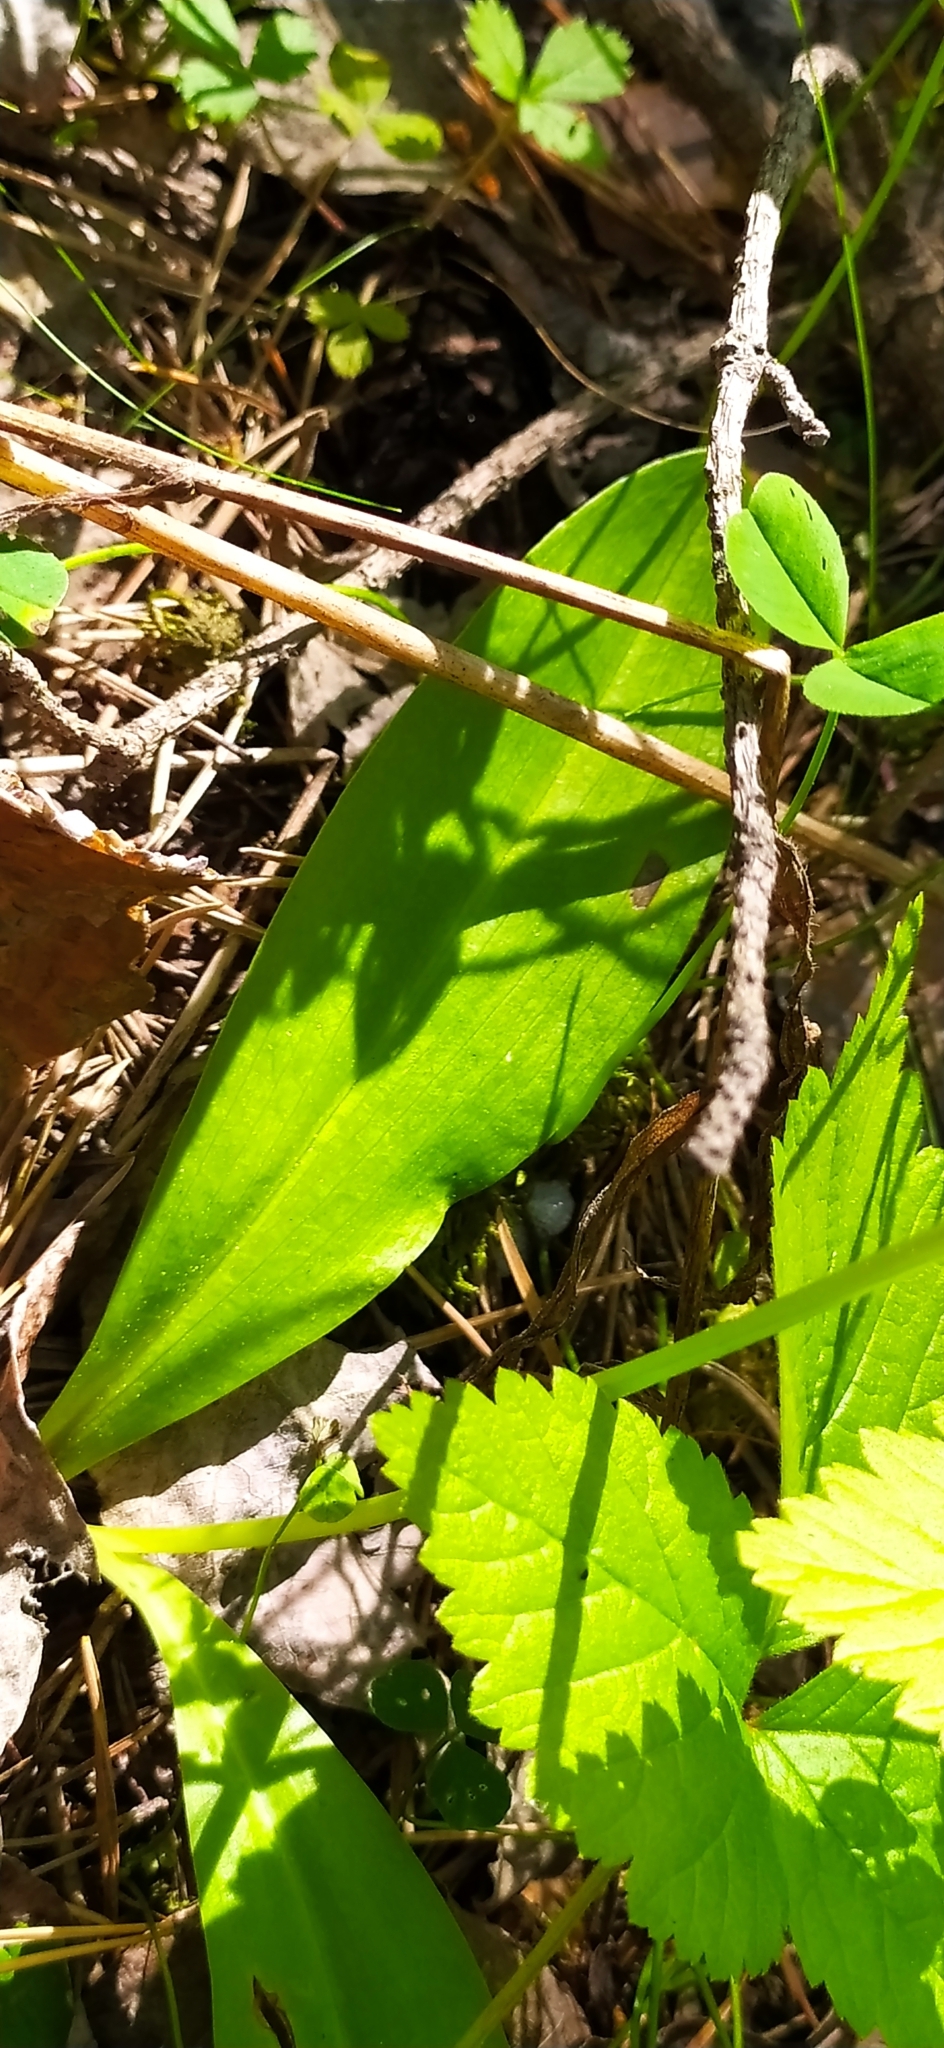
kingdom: Plantae
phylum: Tracheophyta
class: Liliopsida
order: Asparagales
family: Orchidaceae
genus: Platanthera
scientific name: Platanthera bifolia
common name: Lesser butterfly-orchid
